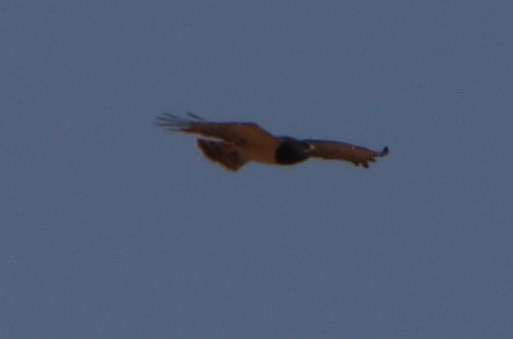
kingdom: Animalia
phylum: Chordata
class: Aves
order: Accipitriformes
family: Accipitridae
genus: Circaetus
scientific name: Circaetus pectoralis
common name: Black-chested snake eagle
